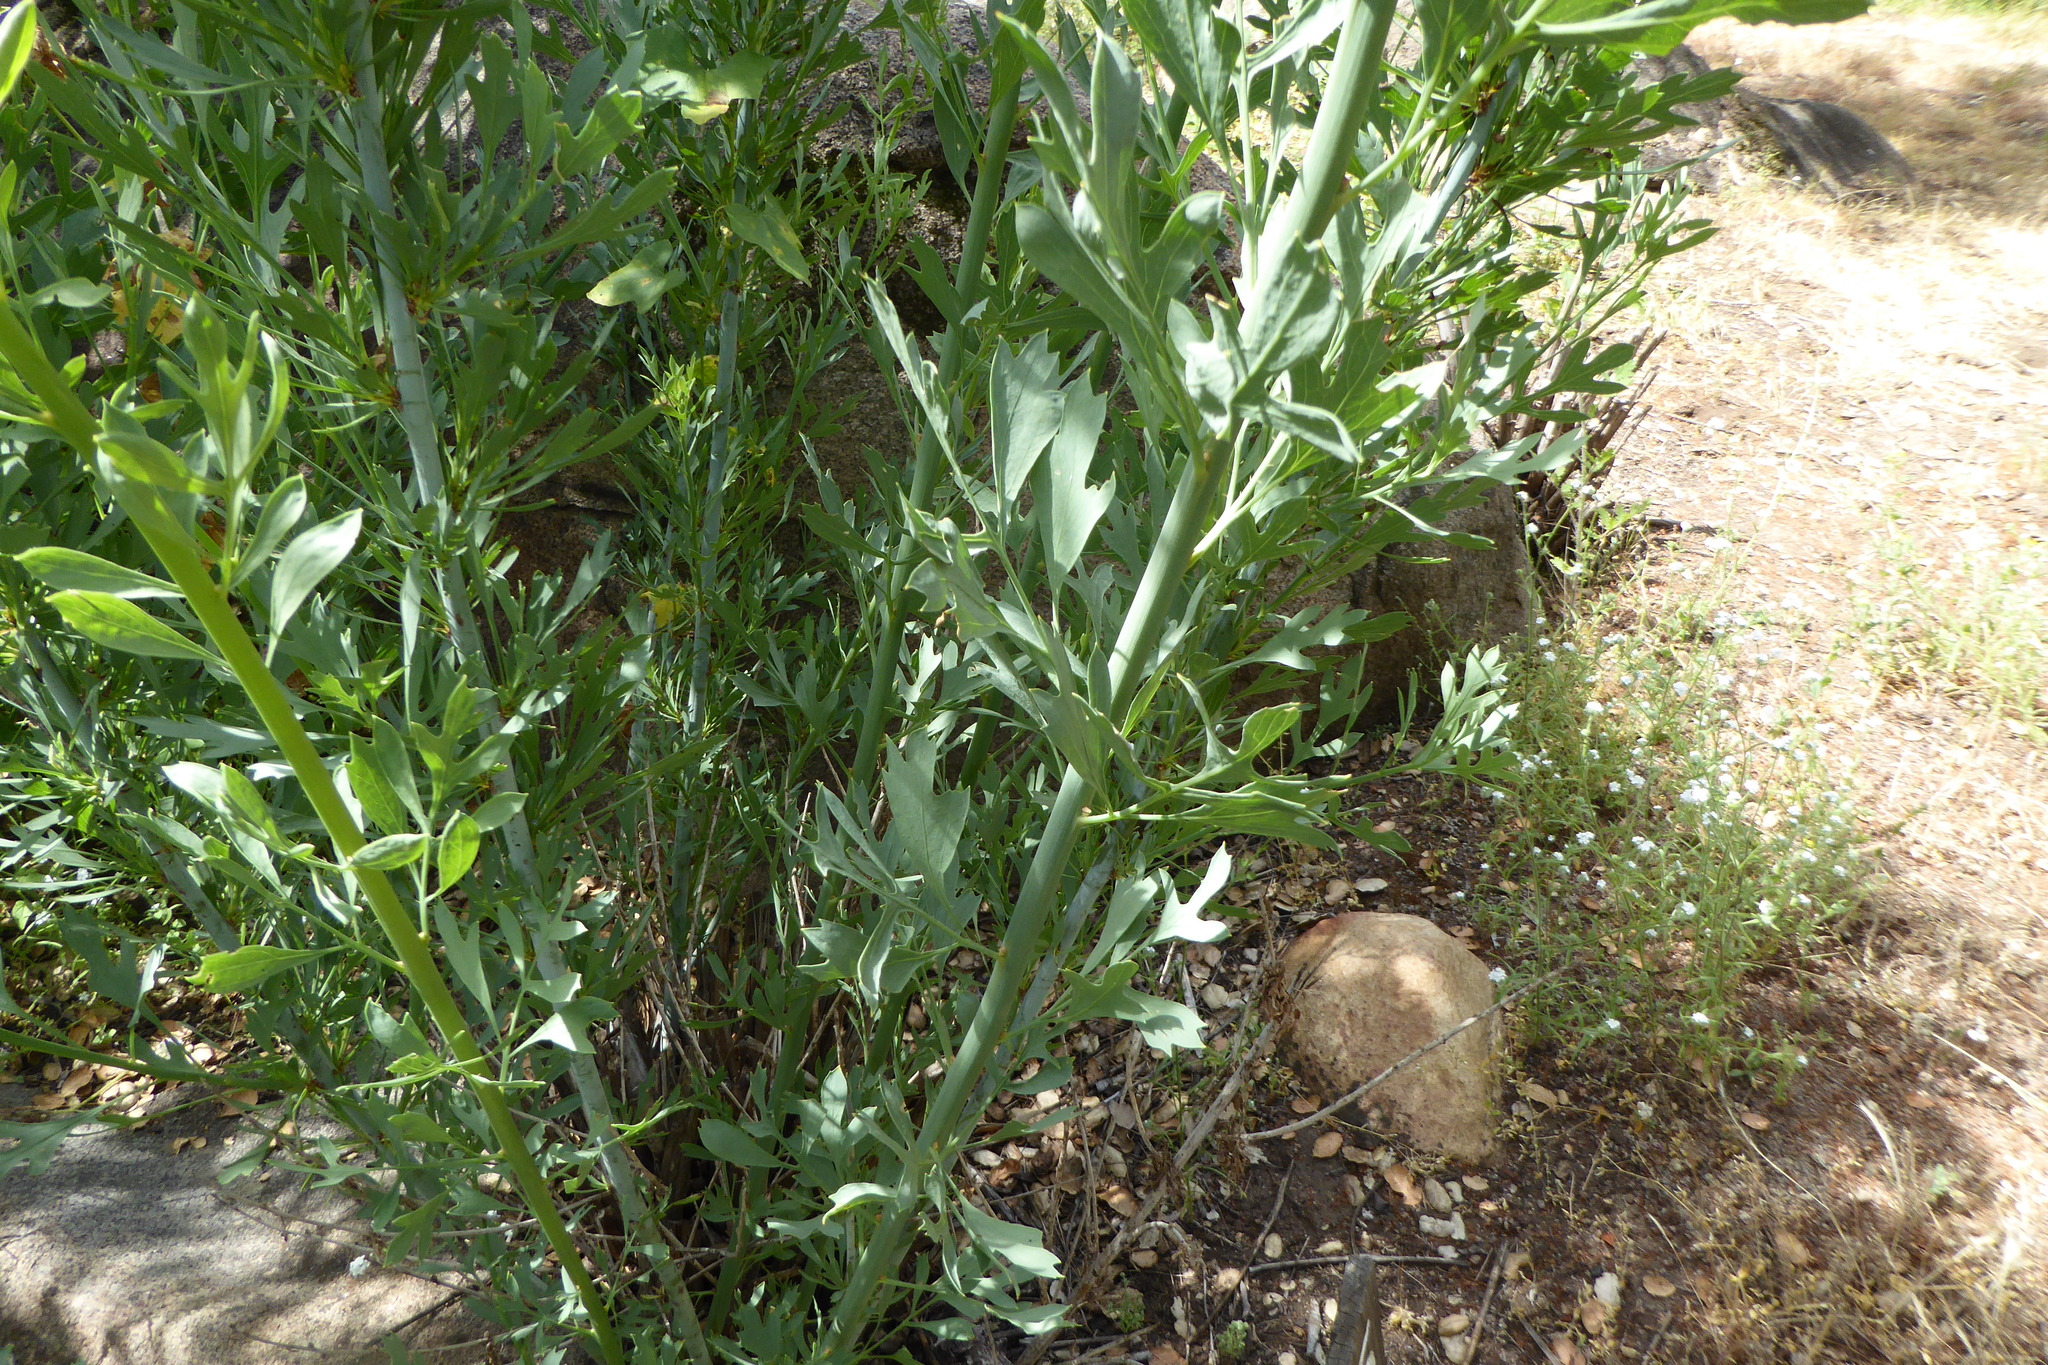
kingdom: Plantae
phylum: Tracheophyta
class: Magnoliopsida
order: Ranunculales
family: Papaveraceae
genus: Romneya
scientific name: Romneya coulteri
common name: California tree-poppy
